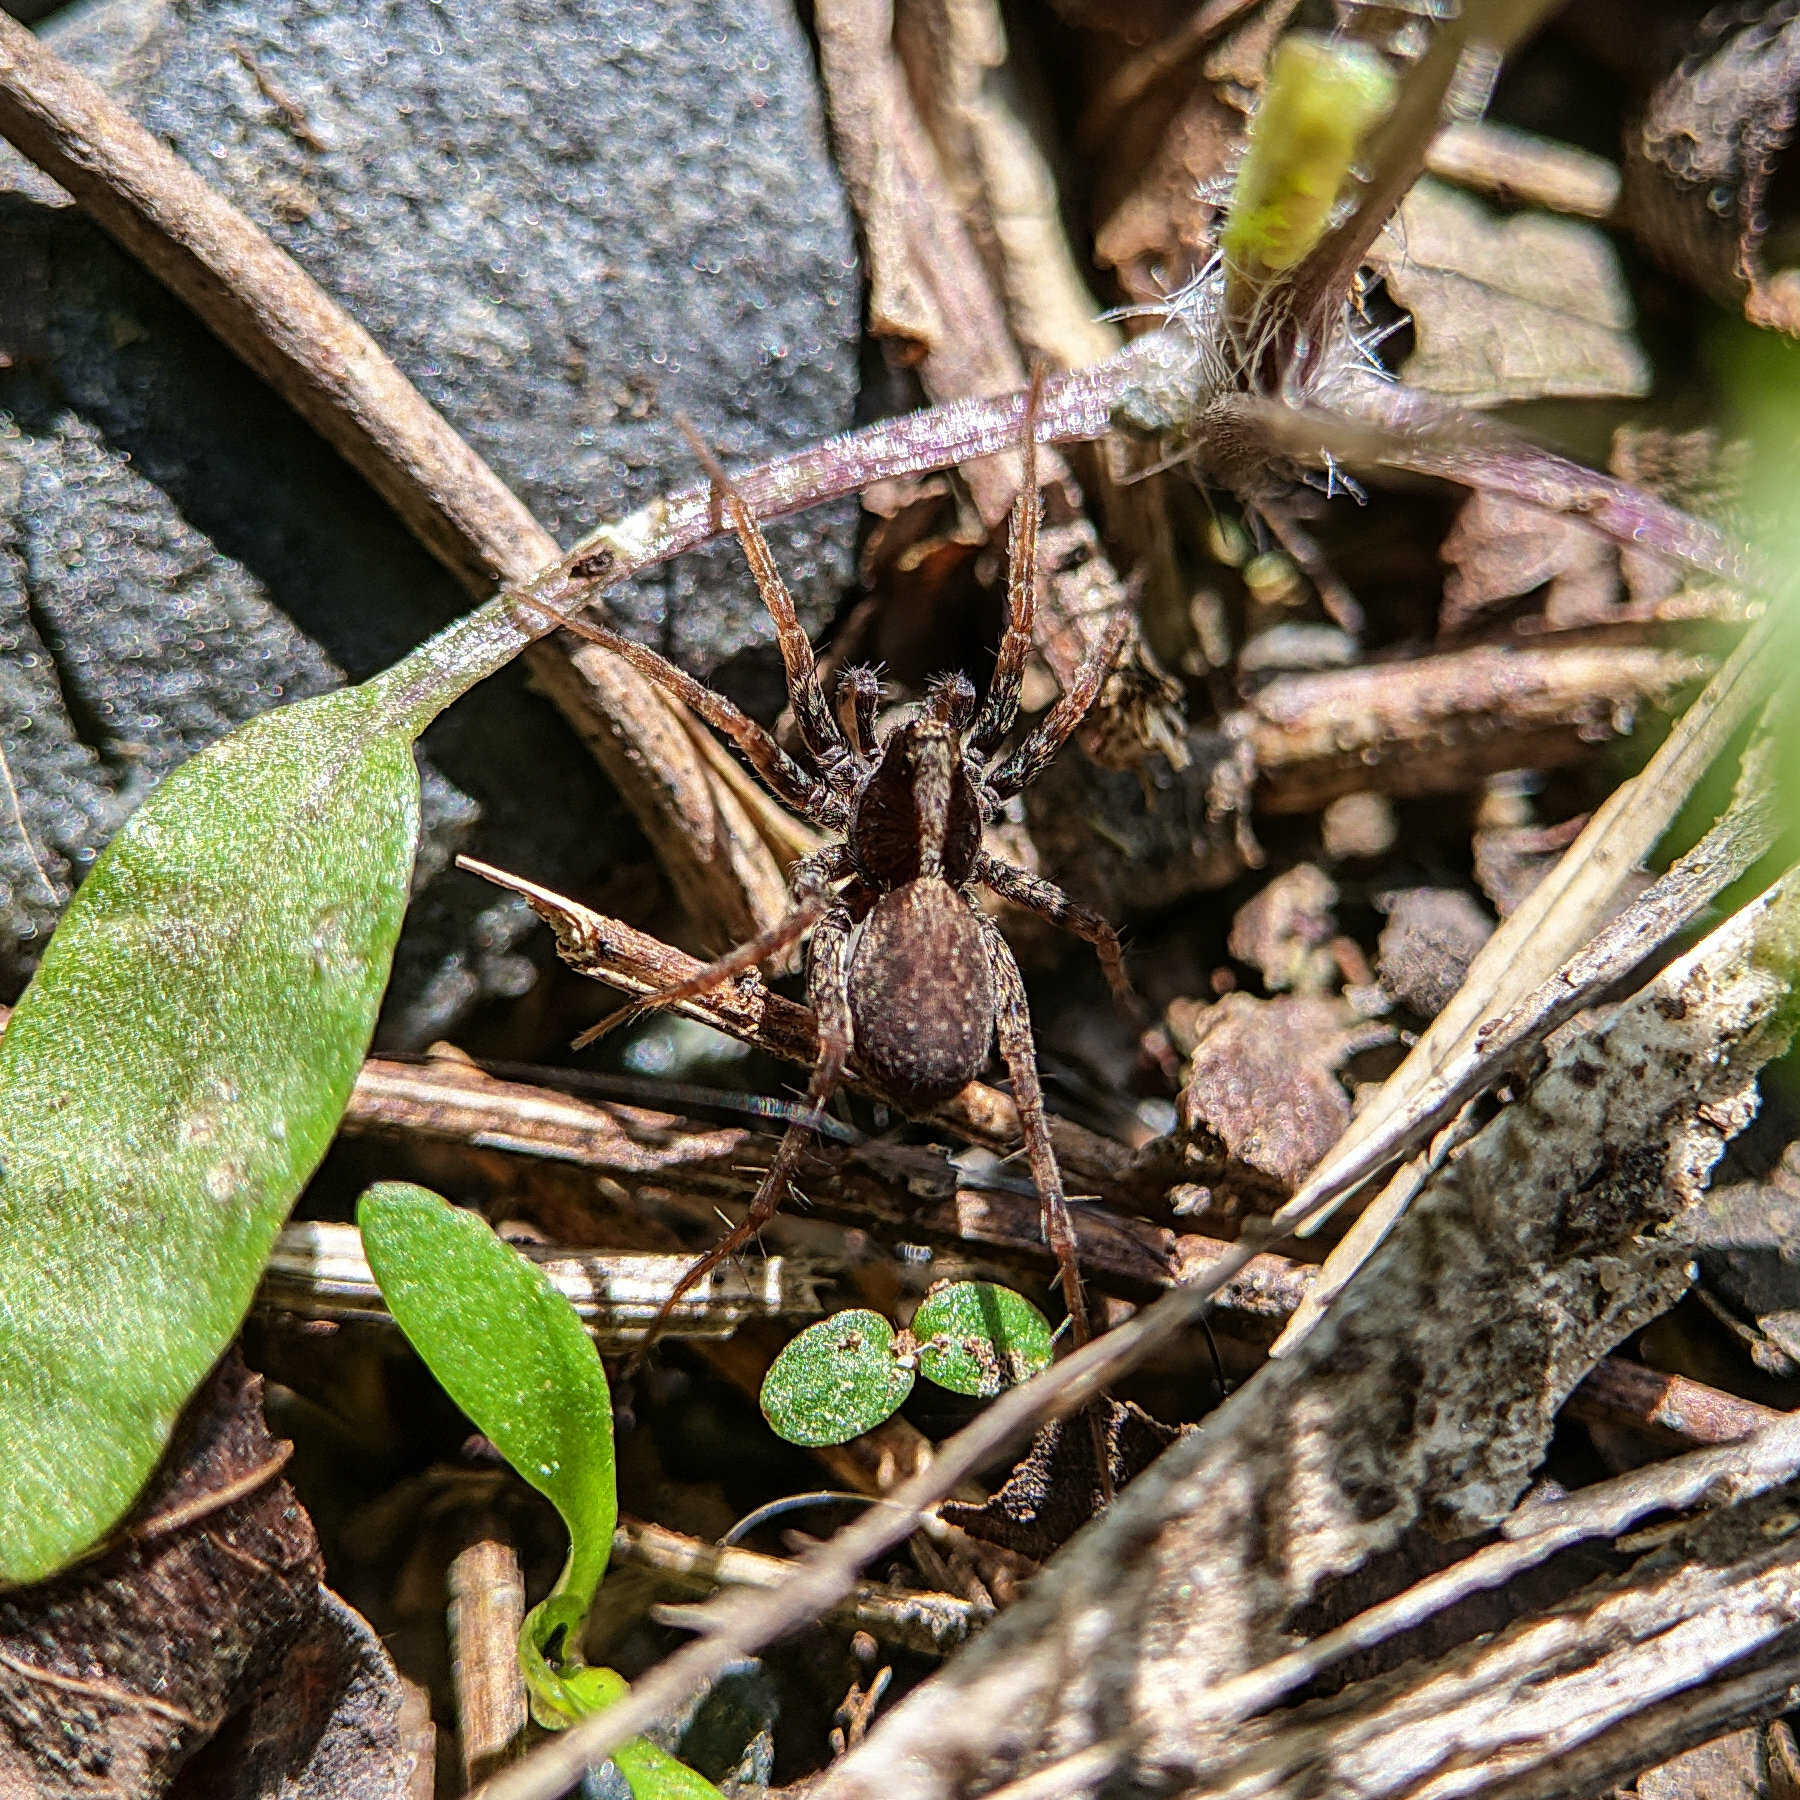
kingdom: Animalia
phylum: Arthropoda
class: Arachnida
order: Araneae
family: Lycosidae
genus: Pardosa
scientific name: Pardosa
